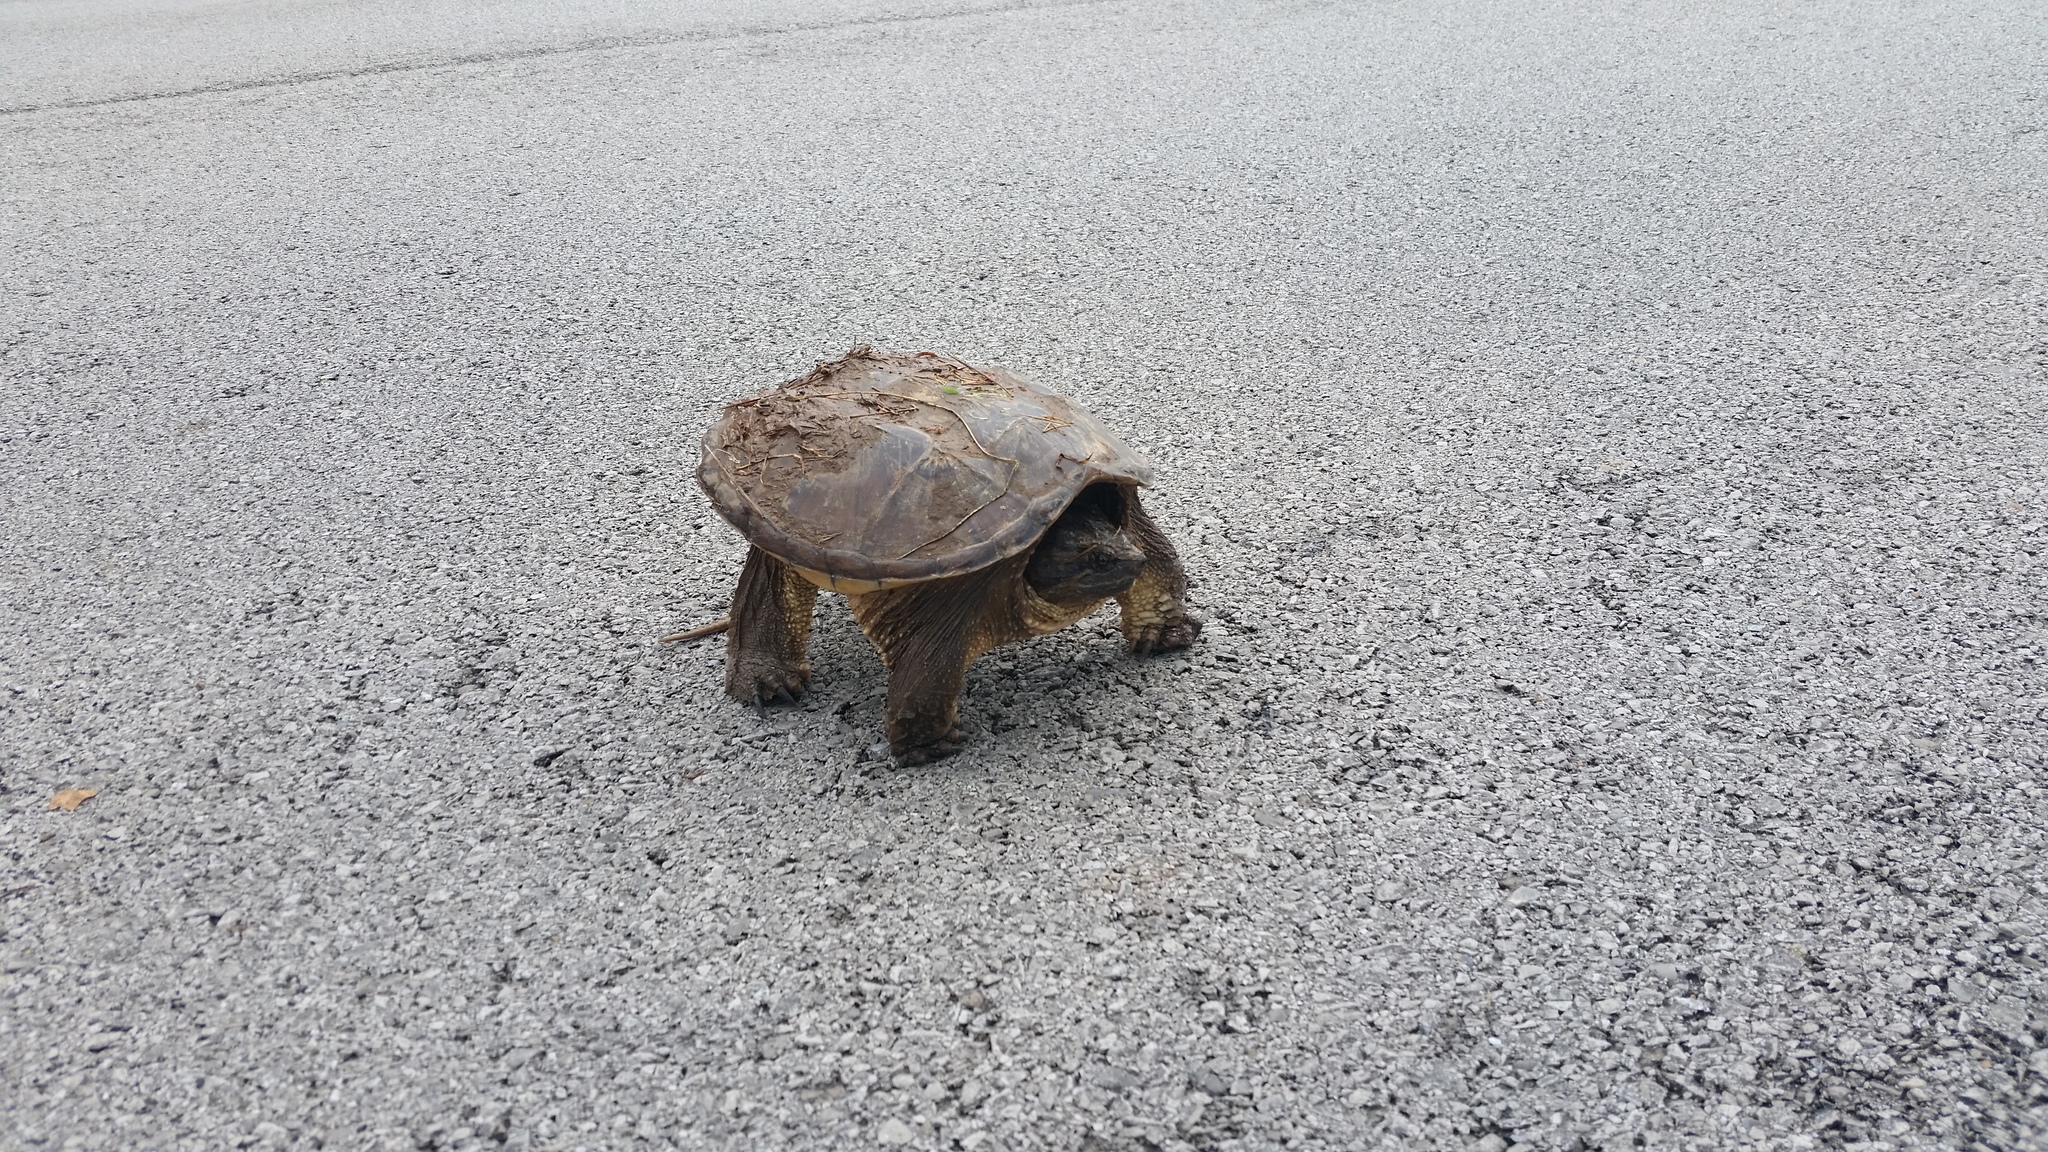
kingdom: Animalia
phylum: Chordata
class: Testudines
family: Chelydridae
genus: Chelydra
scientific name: Chelydra serpentina
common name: Common snapping turtle
